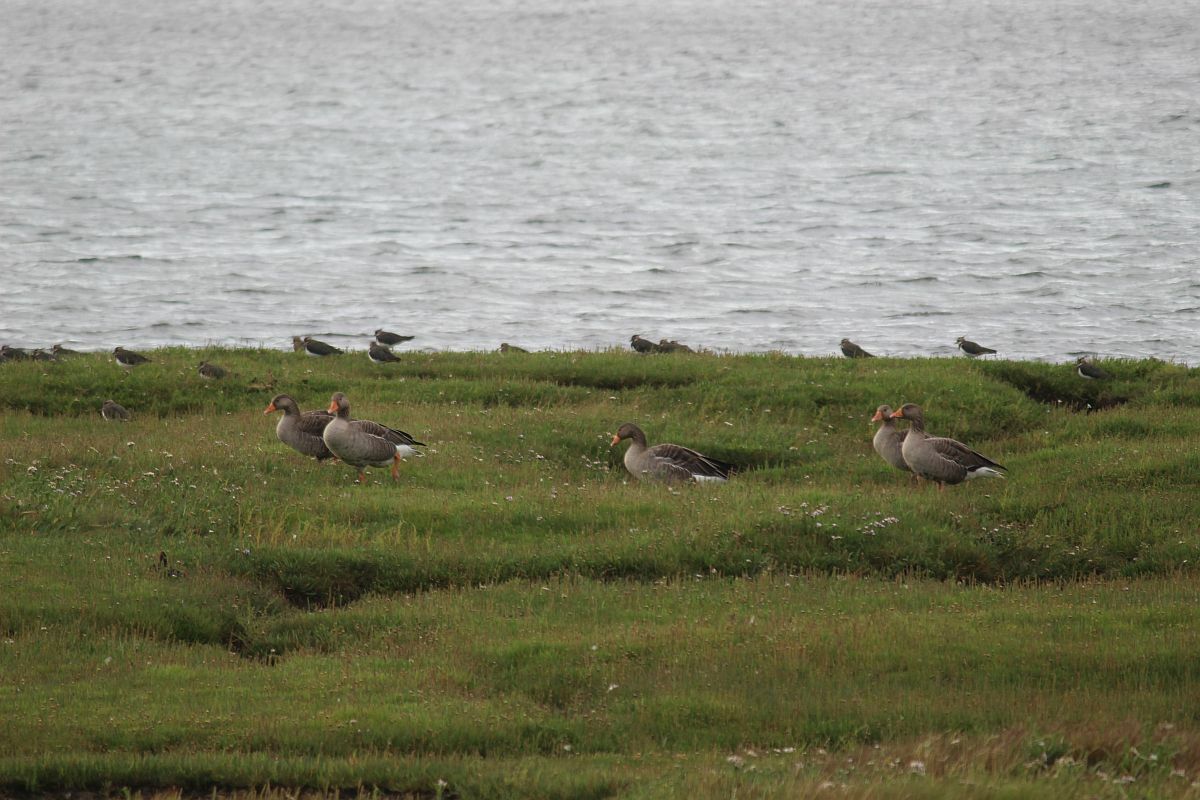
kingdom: Animalia
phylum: Chordata
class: Aves
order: Anseriformes
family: Anatidae
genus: Anser
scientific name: Anser anser
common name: Greylag goose
